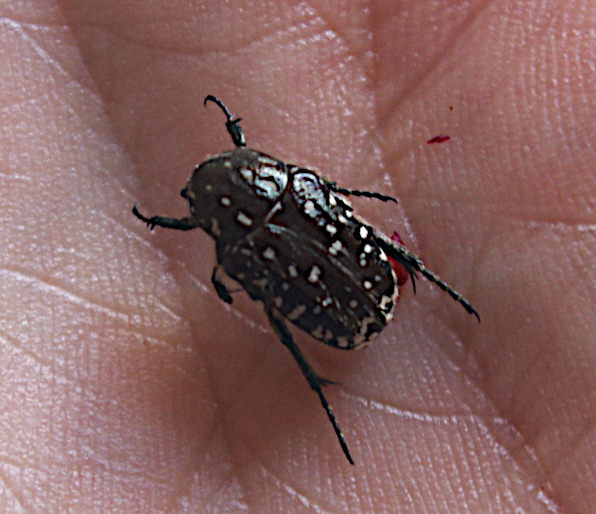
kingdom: Animalia
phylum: Arthropoda
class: Insecta
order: Coleoptera
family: Scarabaeidae
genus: Oxythyrea
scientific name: Oxythyrea funesta
